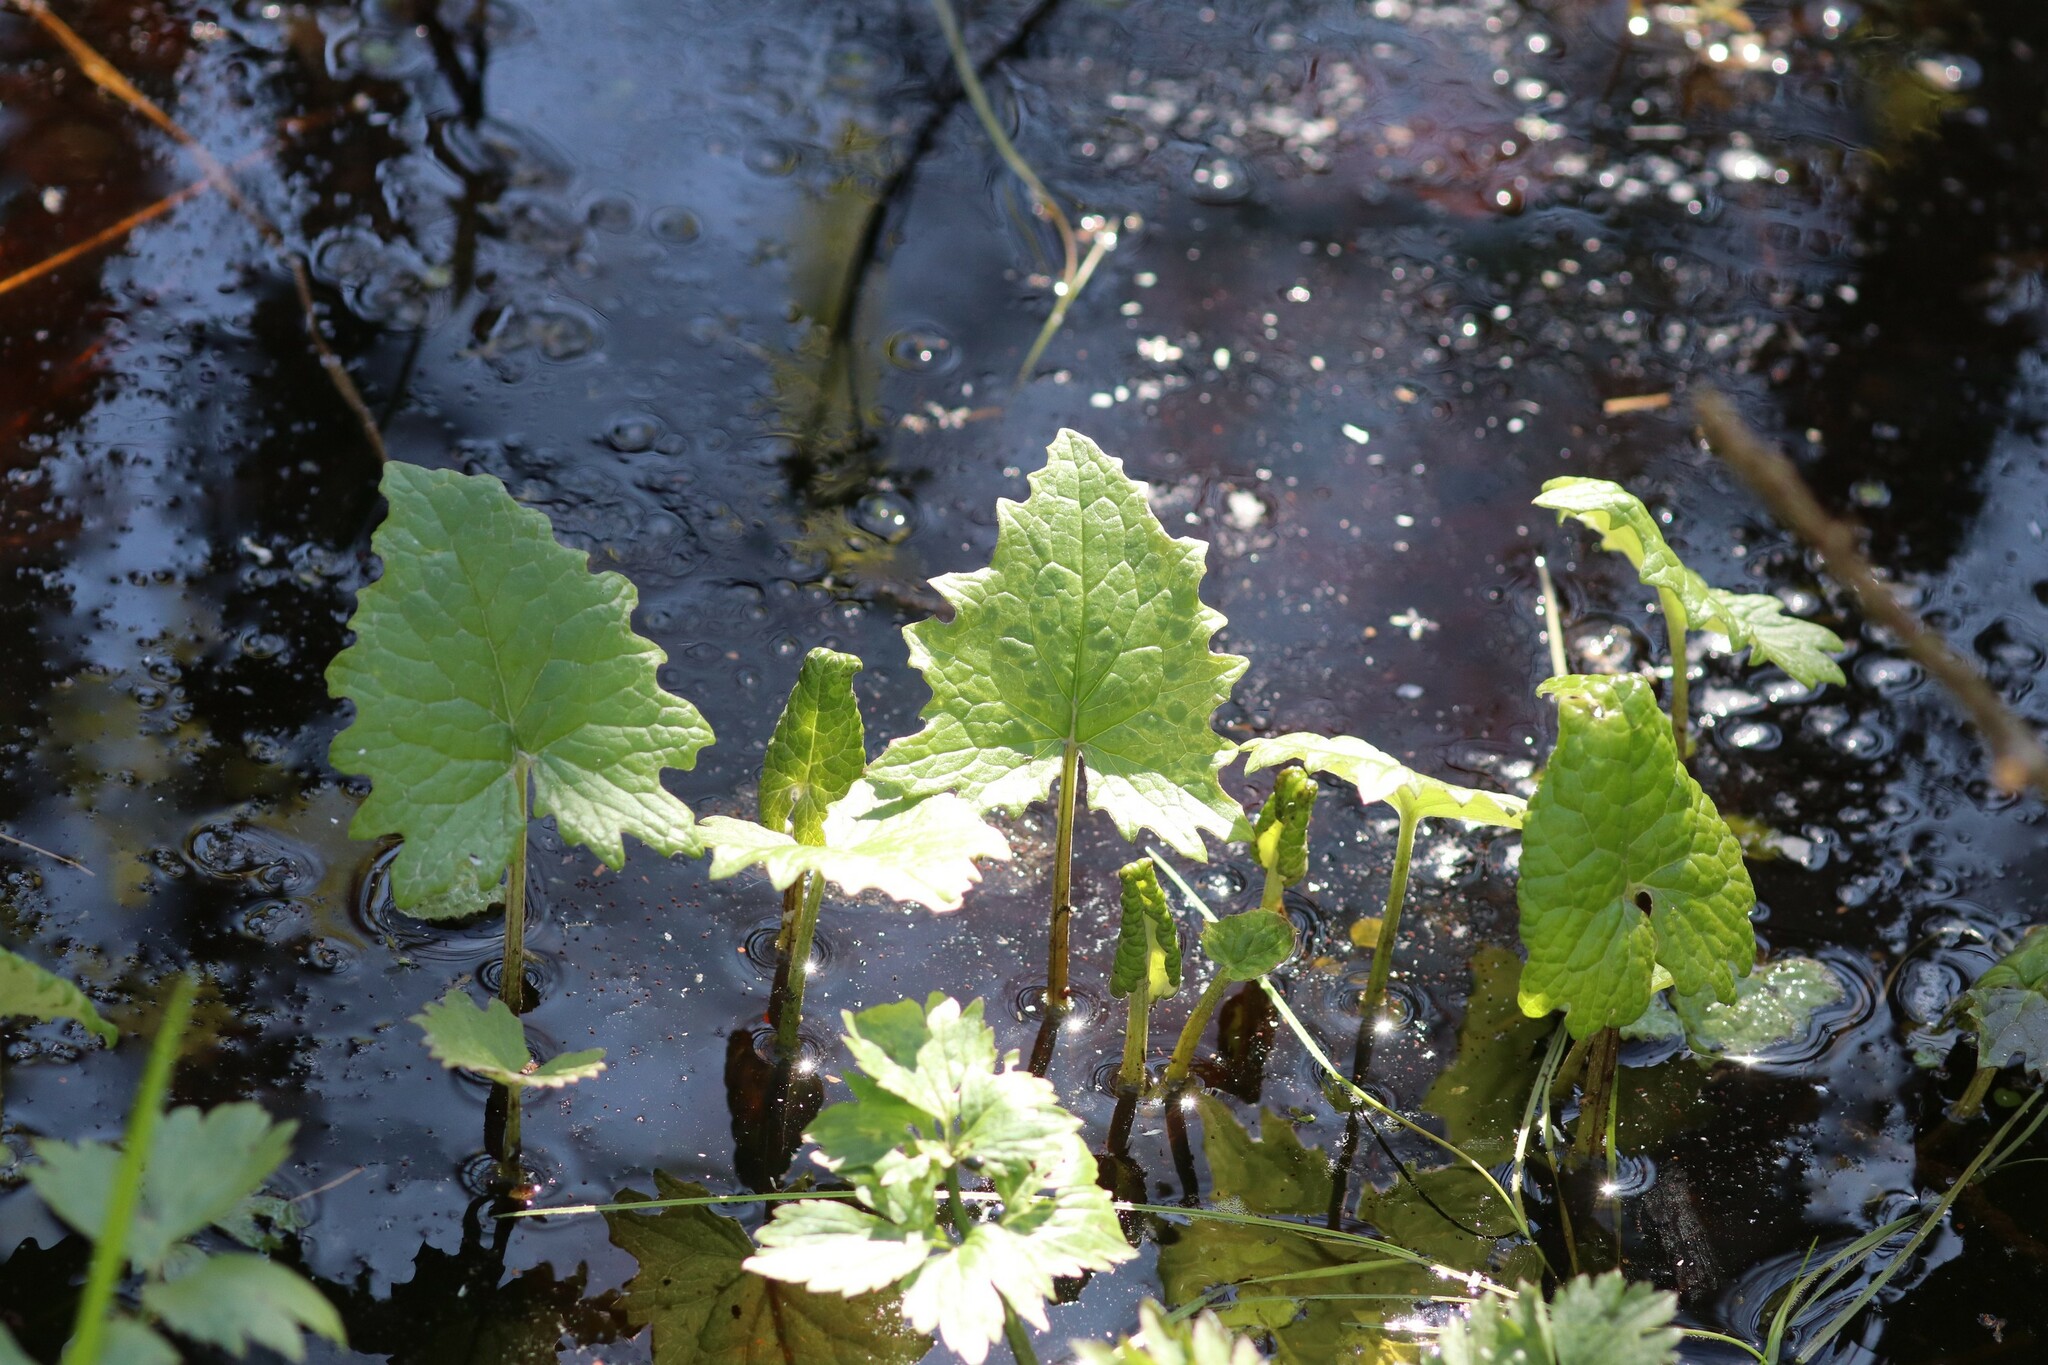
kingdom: Plantae
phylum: Tracheophyta
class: Magnoliopsida
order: Asterales
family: Asteraceae
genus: Petasites
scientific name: Petasites frigidus
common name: Arctic butterbur
